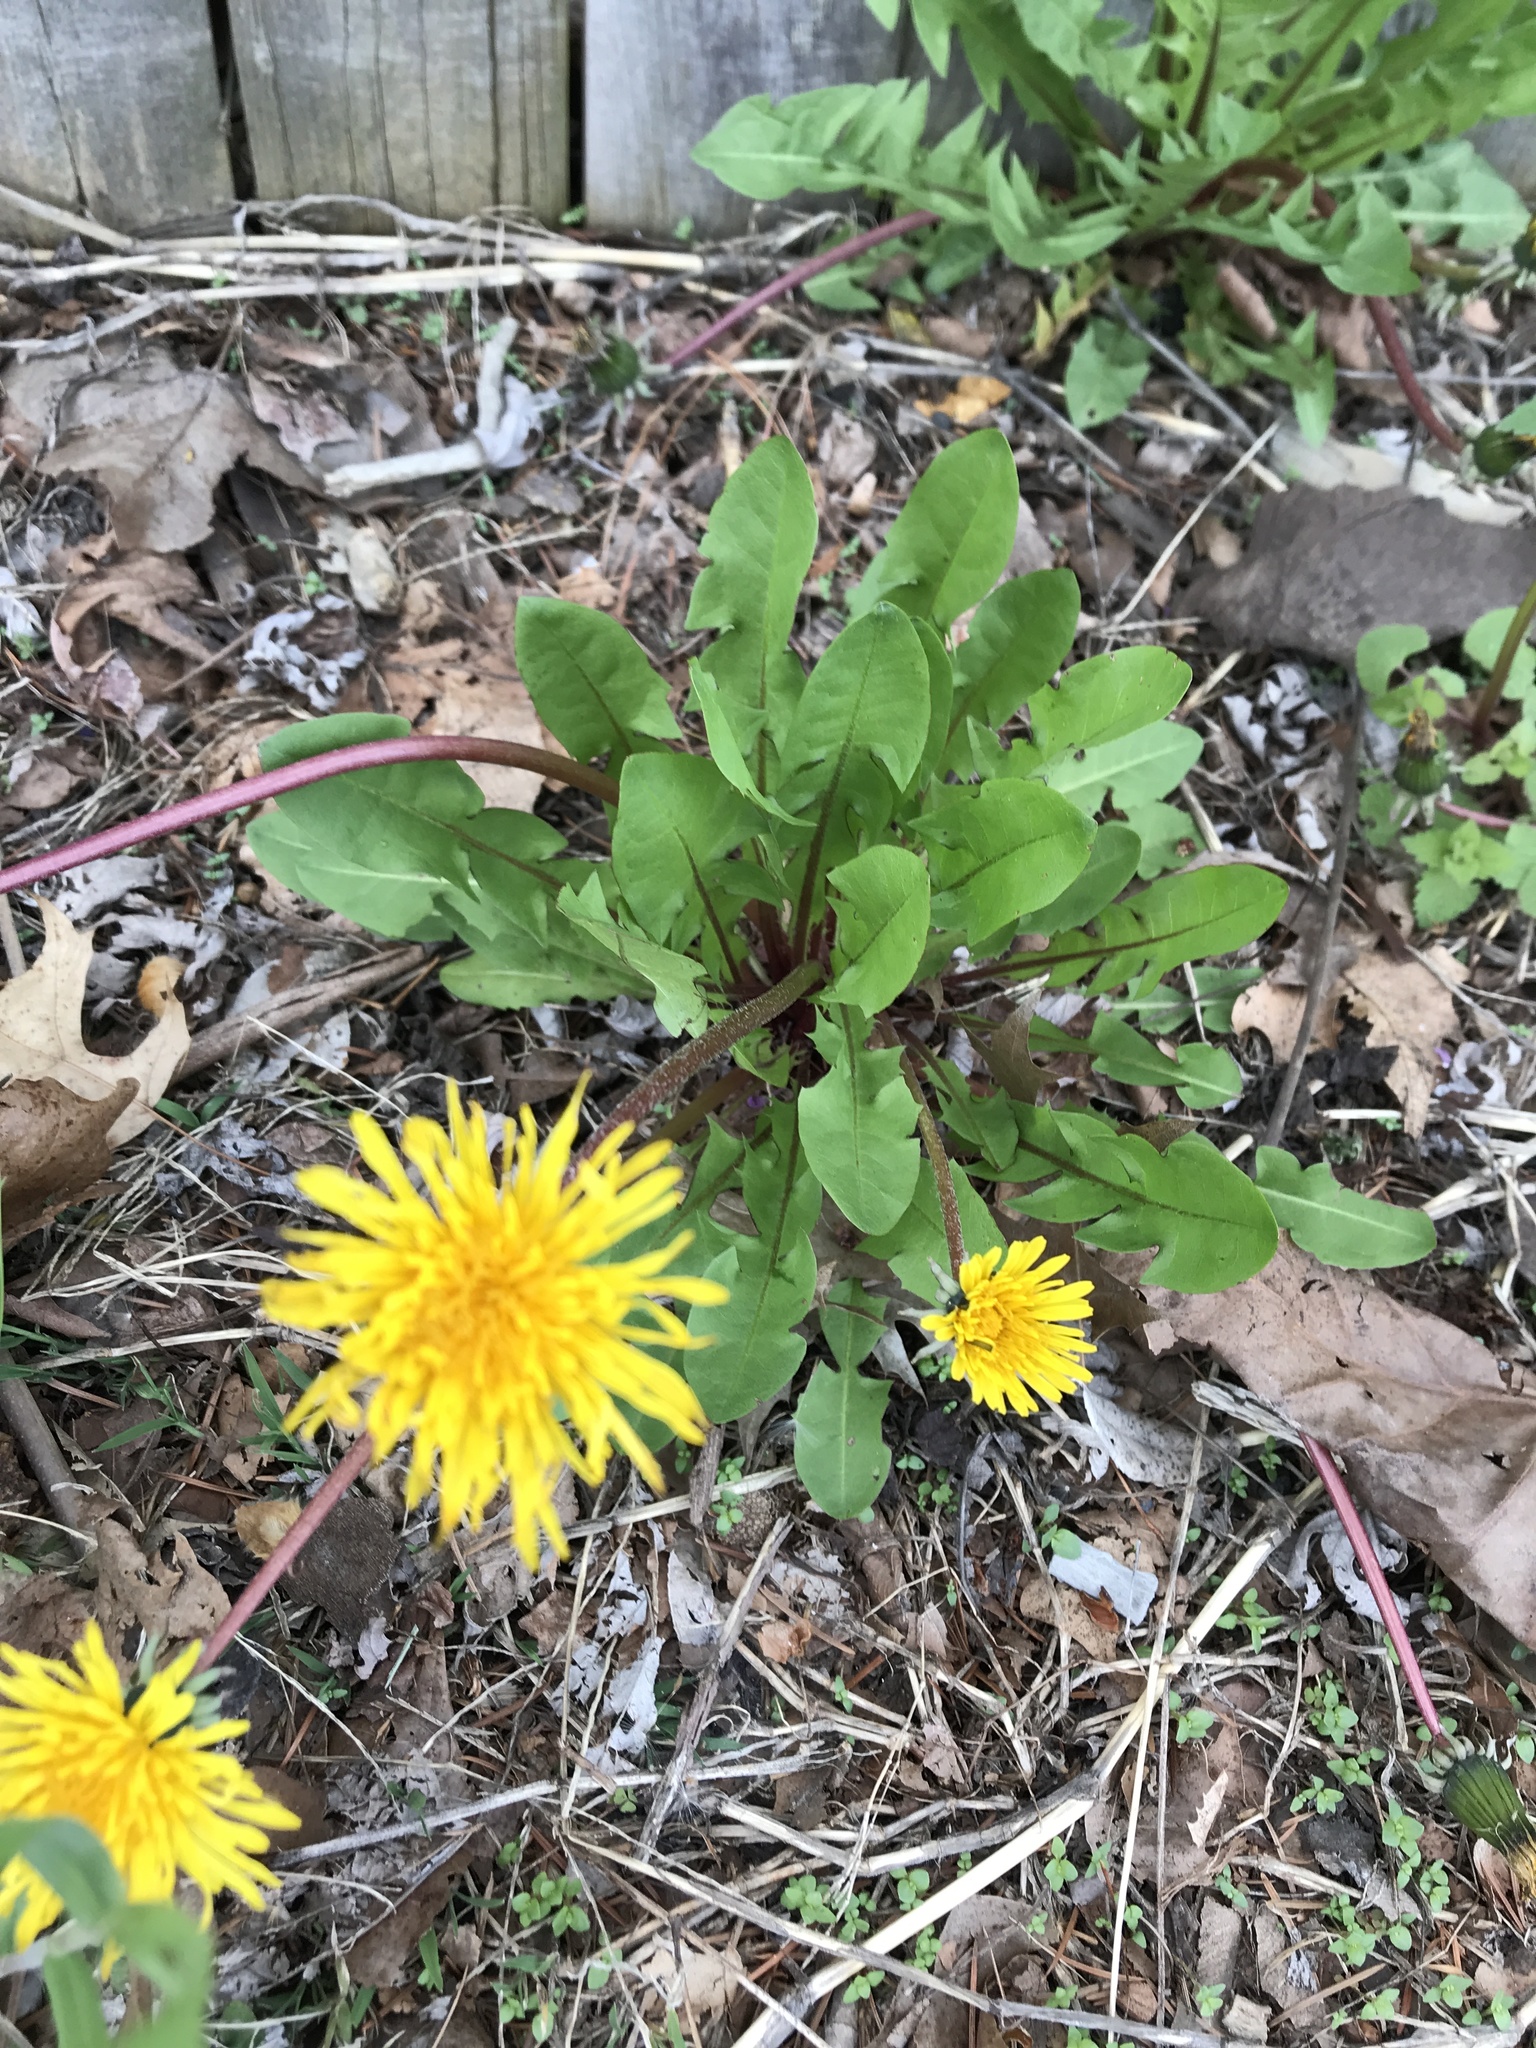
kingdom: Plantae
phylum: Tracheophyta
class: Magnoliopsida
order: Asterales
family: Asteraceae
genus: Taraxacum
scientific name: Taraxacum officinale
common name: Common dandelion
